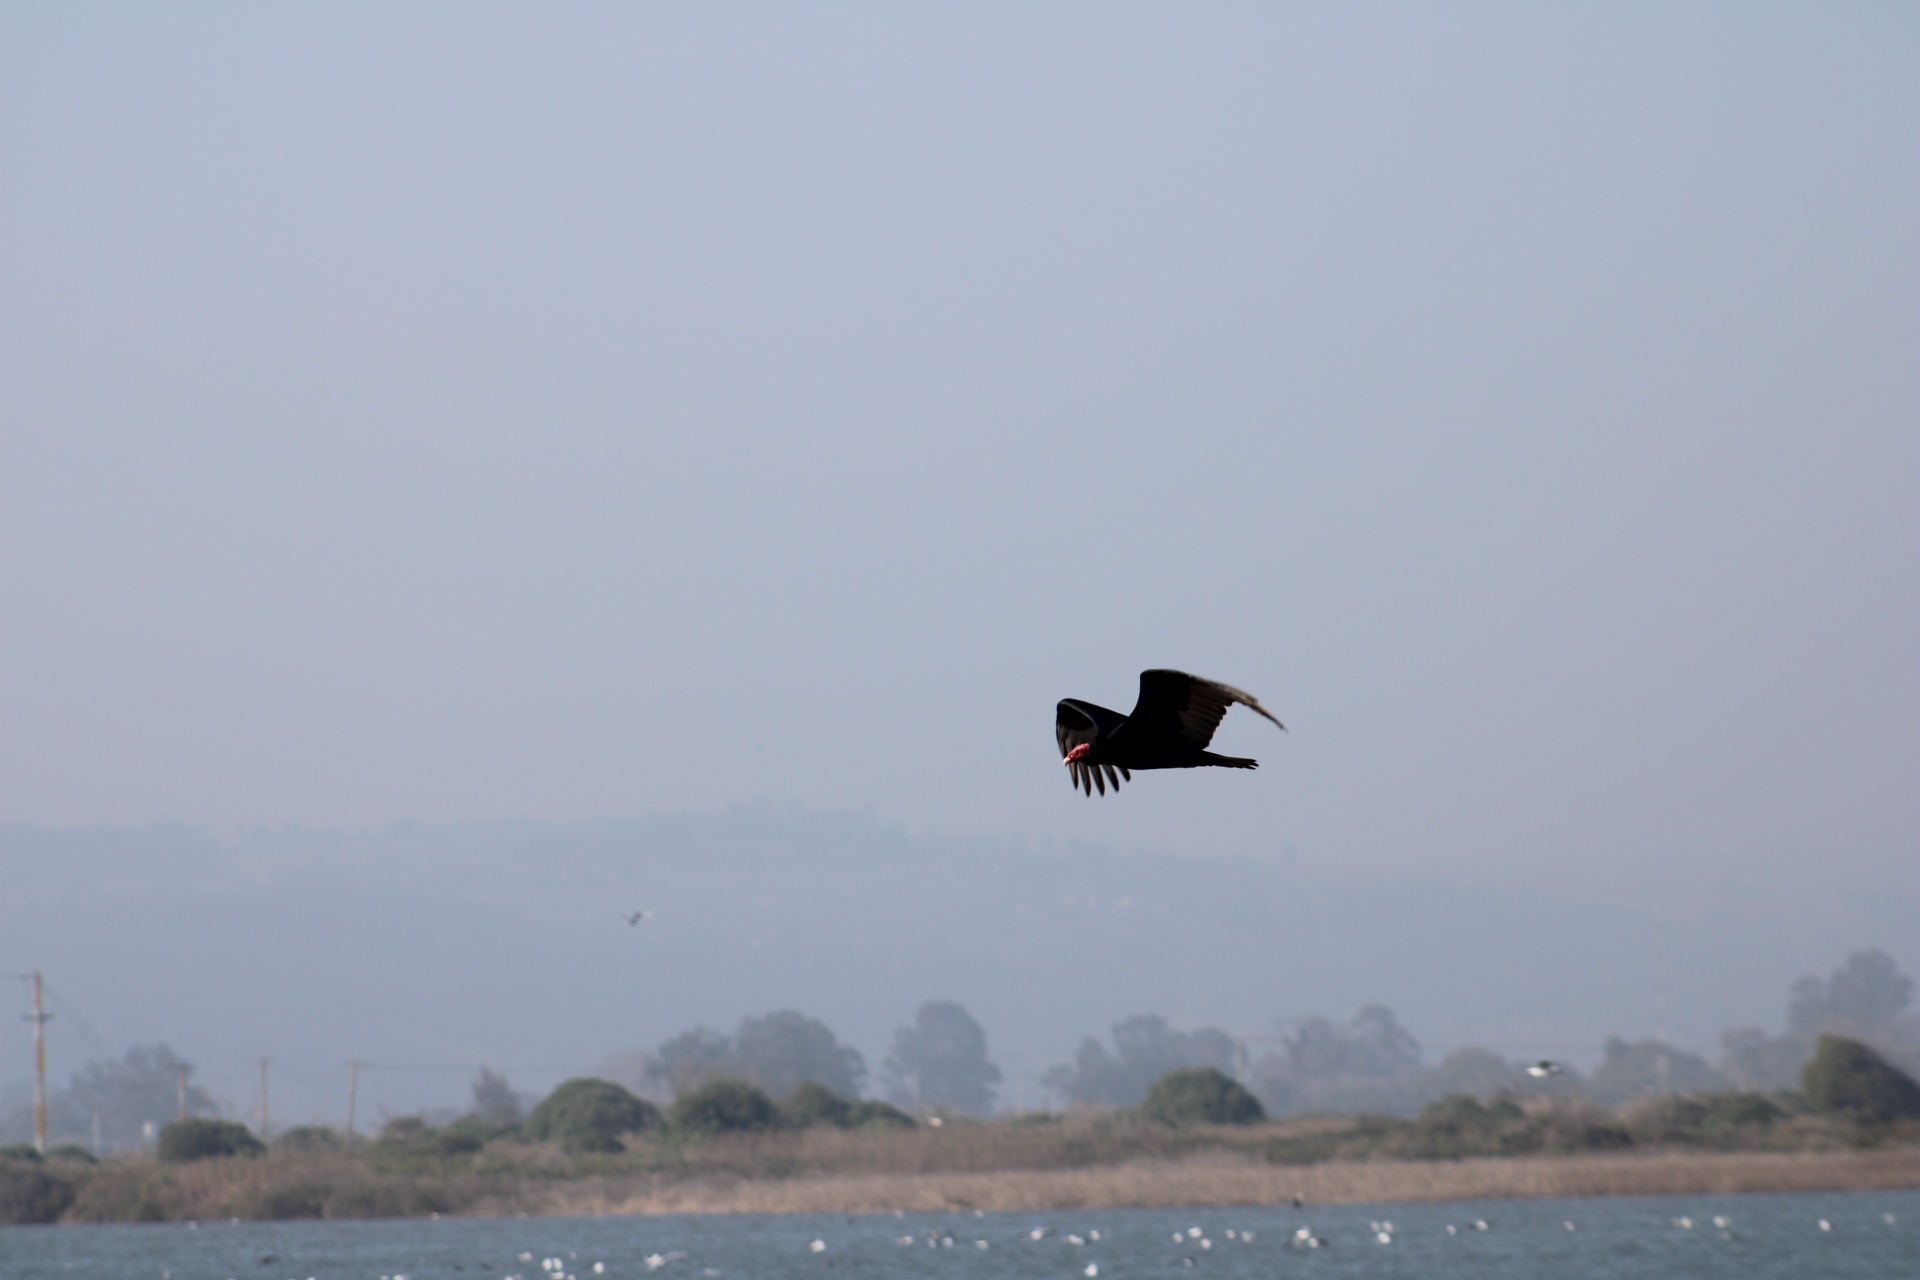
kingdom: Animalia
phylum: Chordata
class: Aves
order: Accipitriformes
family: Cathartidae
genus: Cathartes
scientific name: Cathartes aura
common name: Turkey vulture
